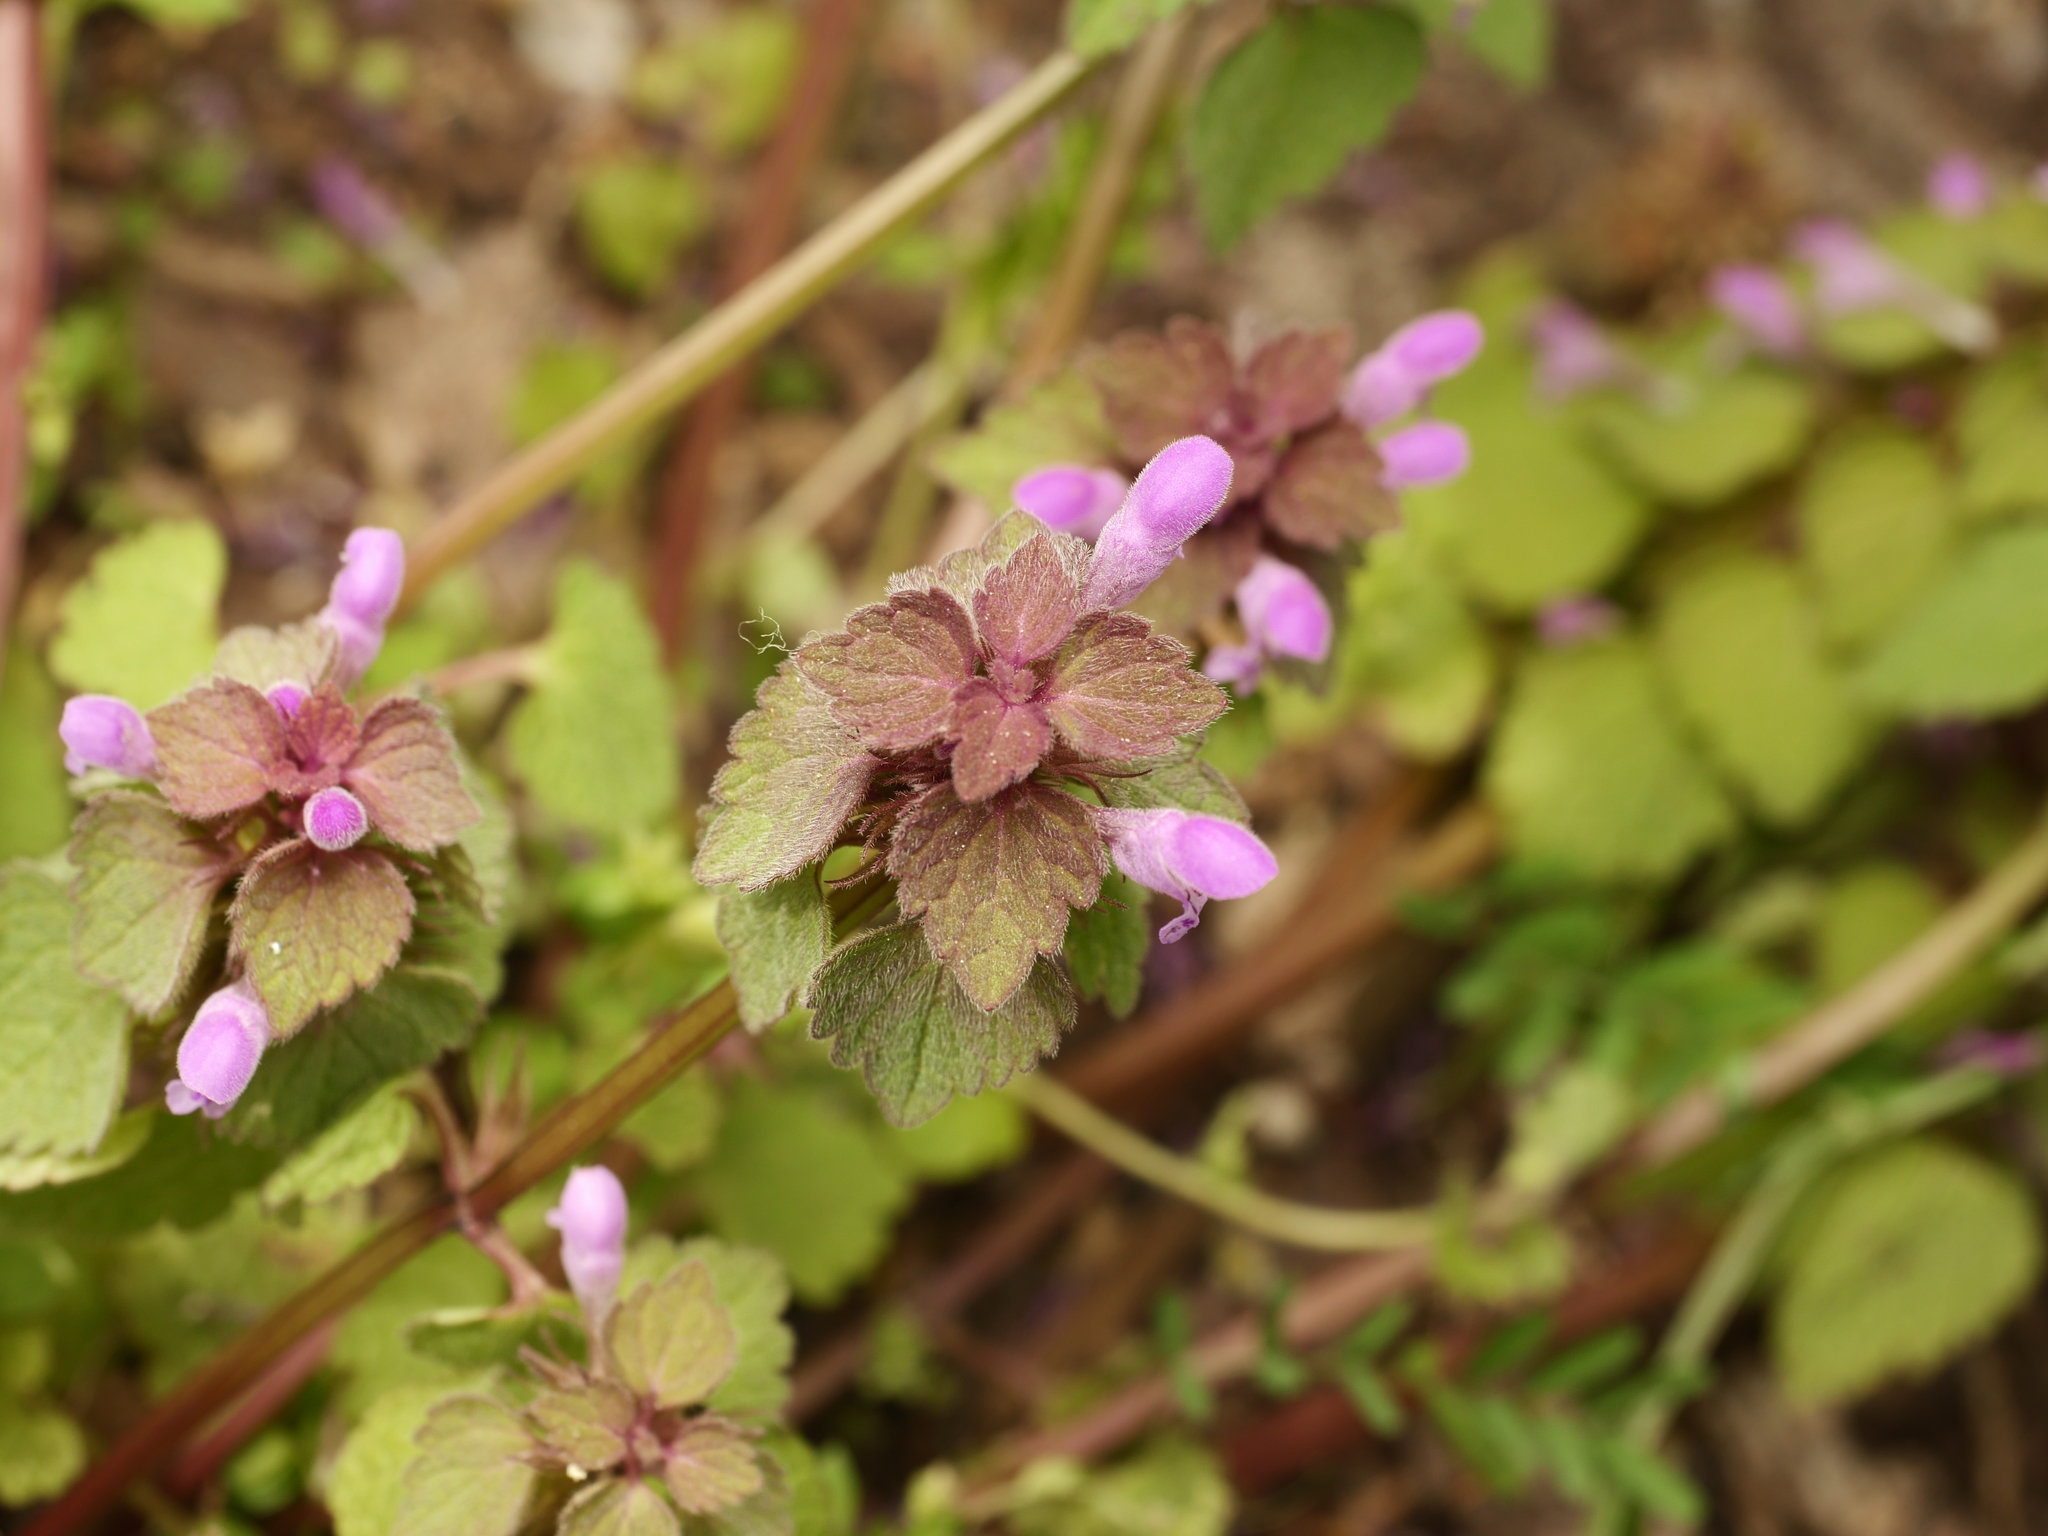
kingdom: Plantae
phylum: Tracheophyta
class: Magnoliopsida
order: Lamiales
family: Lamiaceae
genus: Lamium
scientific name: Lamium purpureum
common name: Red dead-nettle
